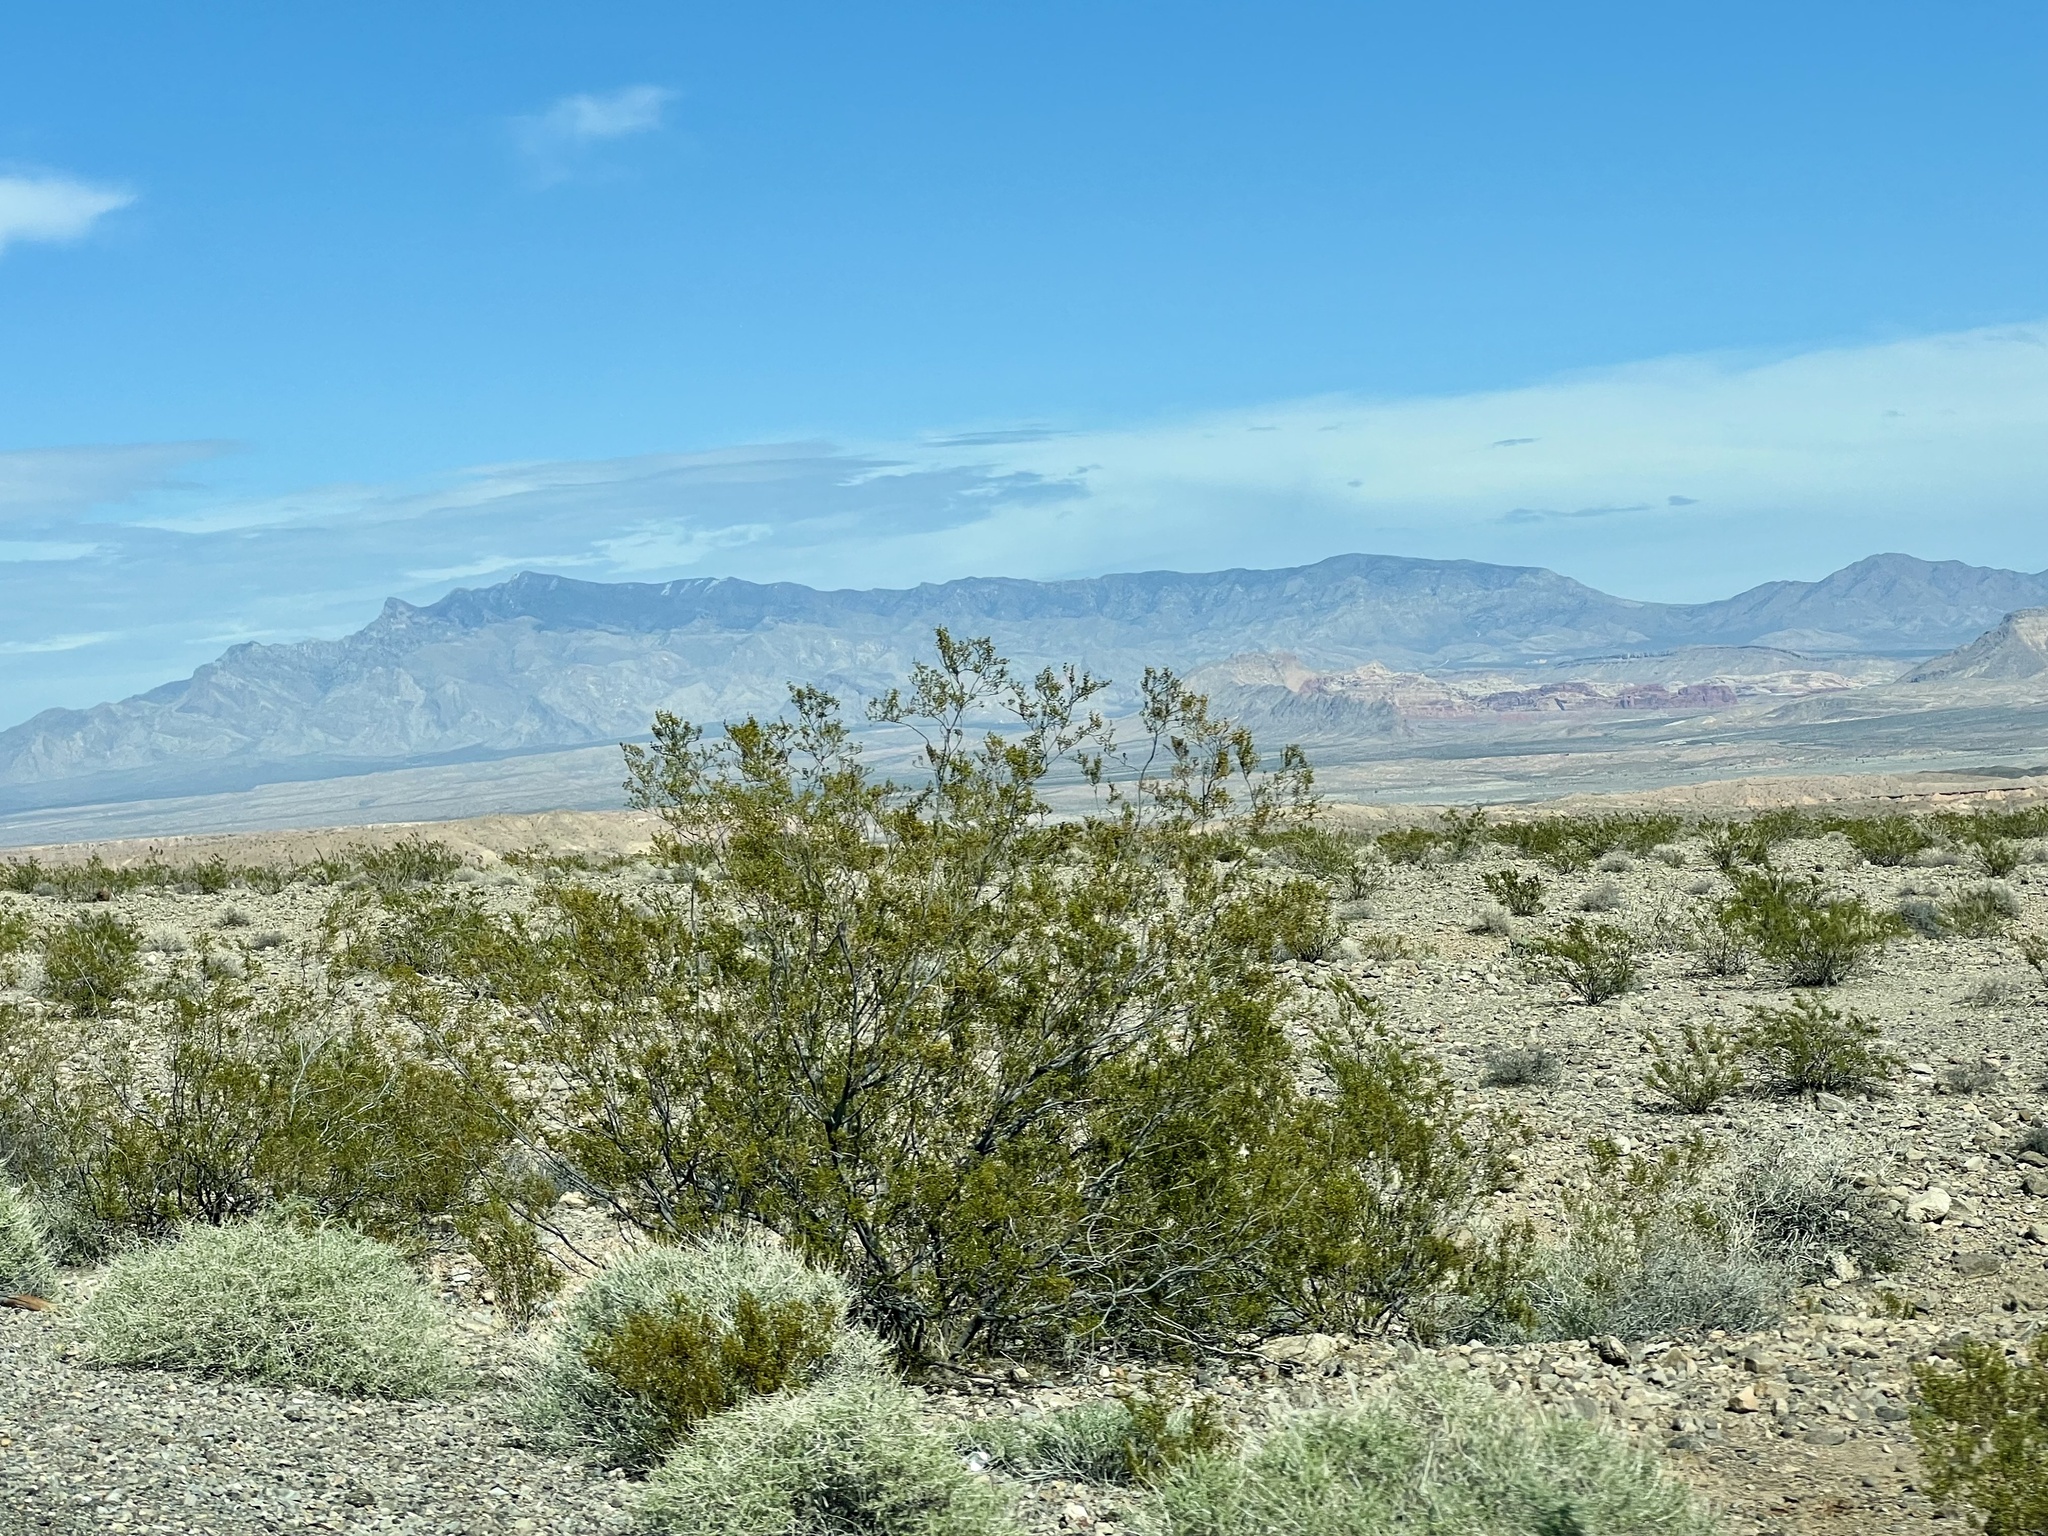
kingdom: Plantae
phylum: Tracheophyta
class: Magnoliopsida
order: Zygophyllales
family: Zygophyllaceae
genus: Larrea
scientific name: Larrea tridentata
